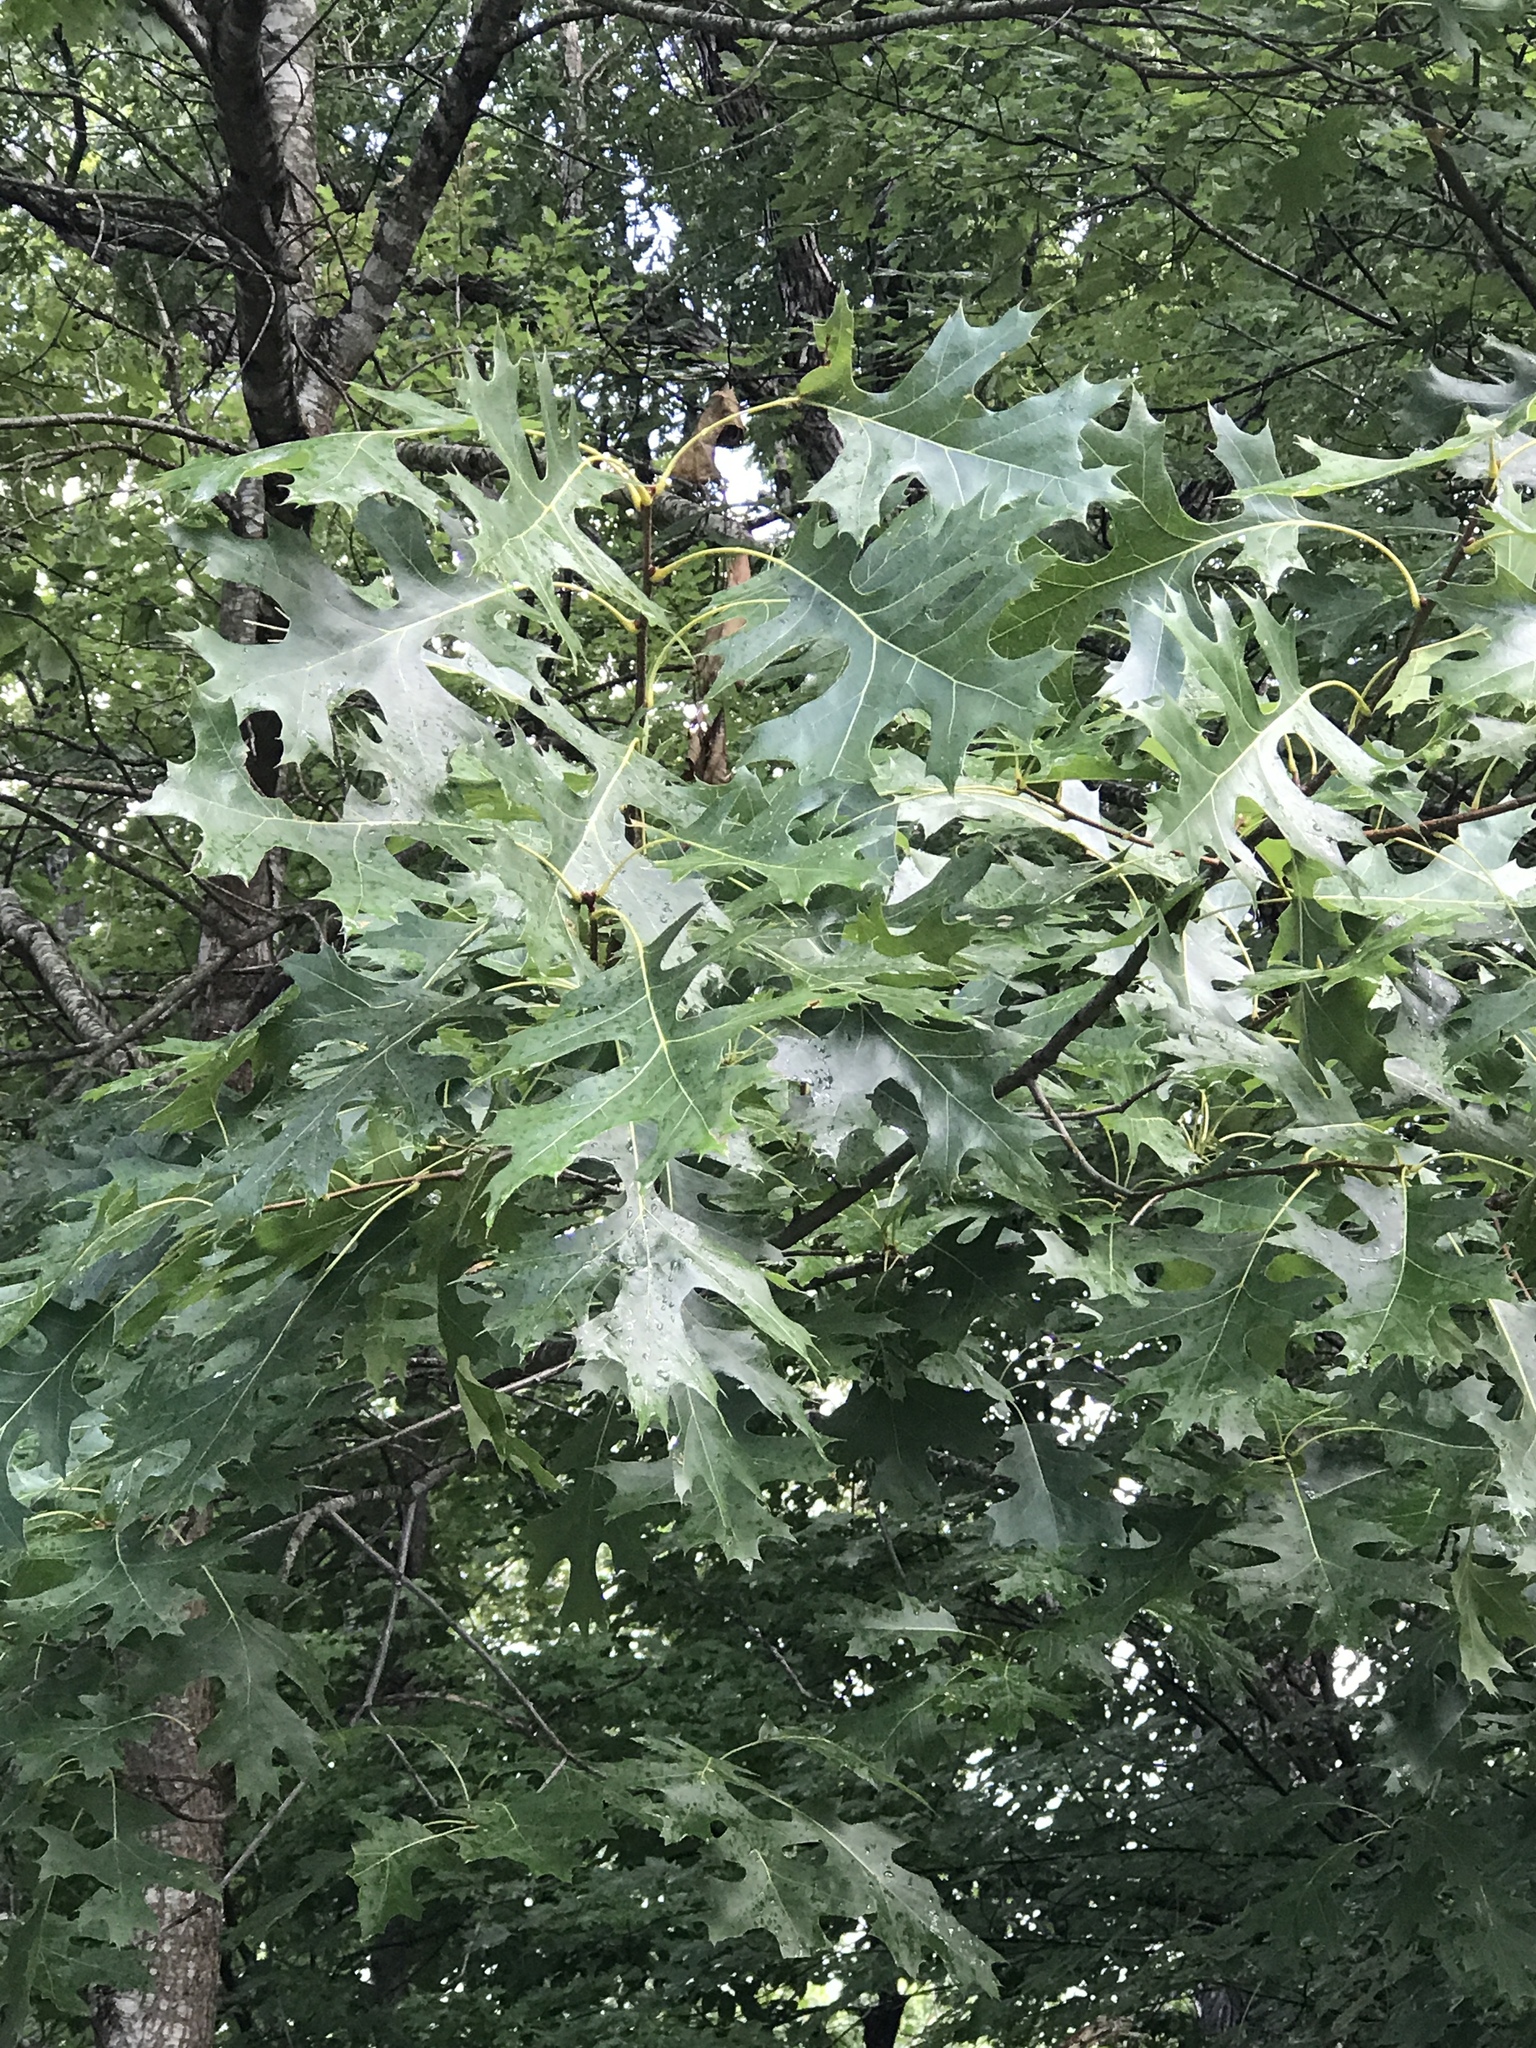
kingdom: Plantae
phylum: Tracheophyta
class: Magnoliopsida
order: Fagales
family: Fagaceae
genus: Quercus
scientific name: Quercus coccinea
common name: Scarlet oak
